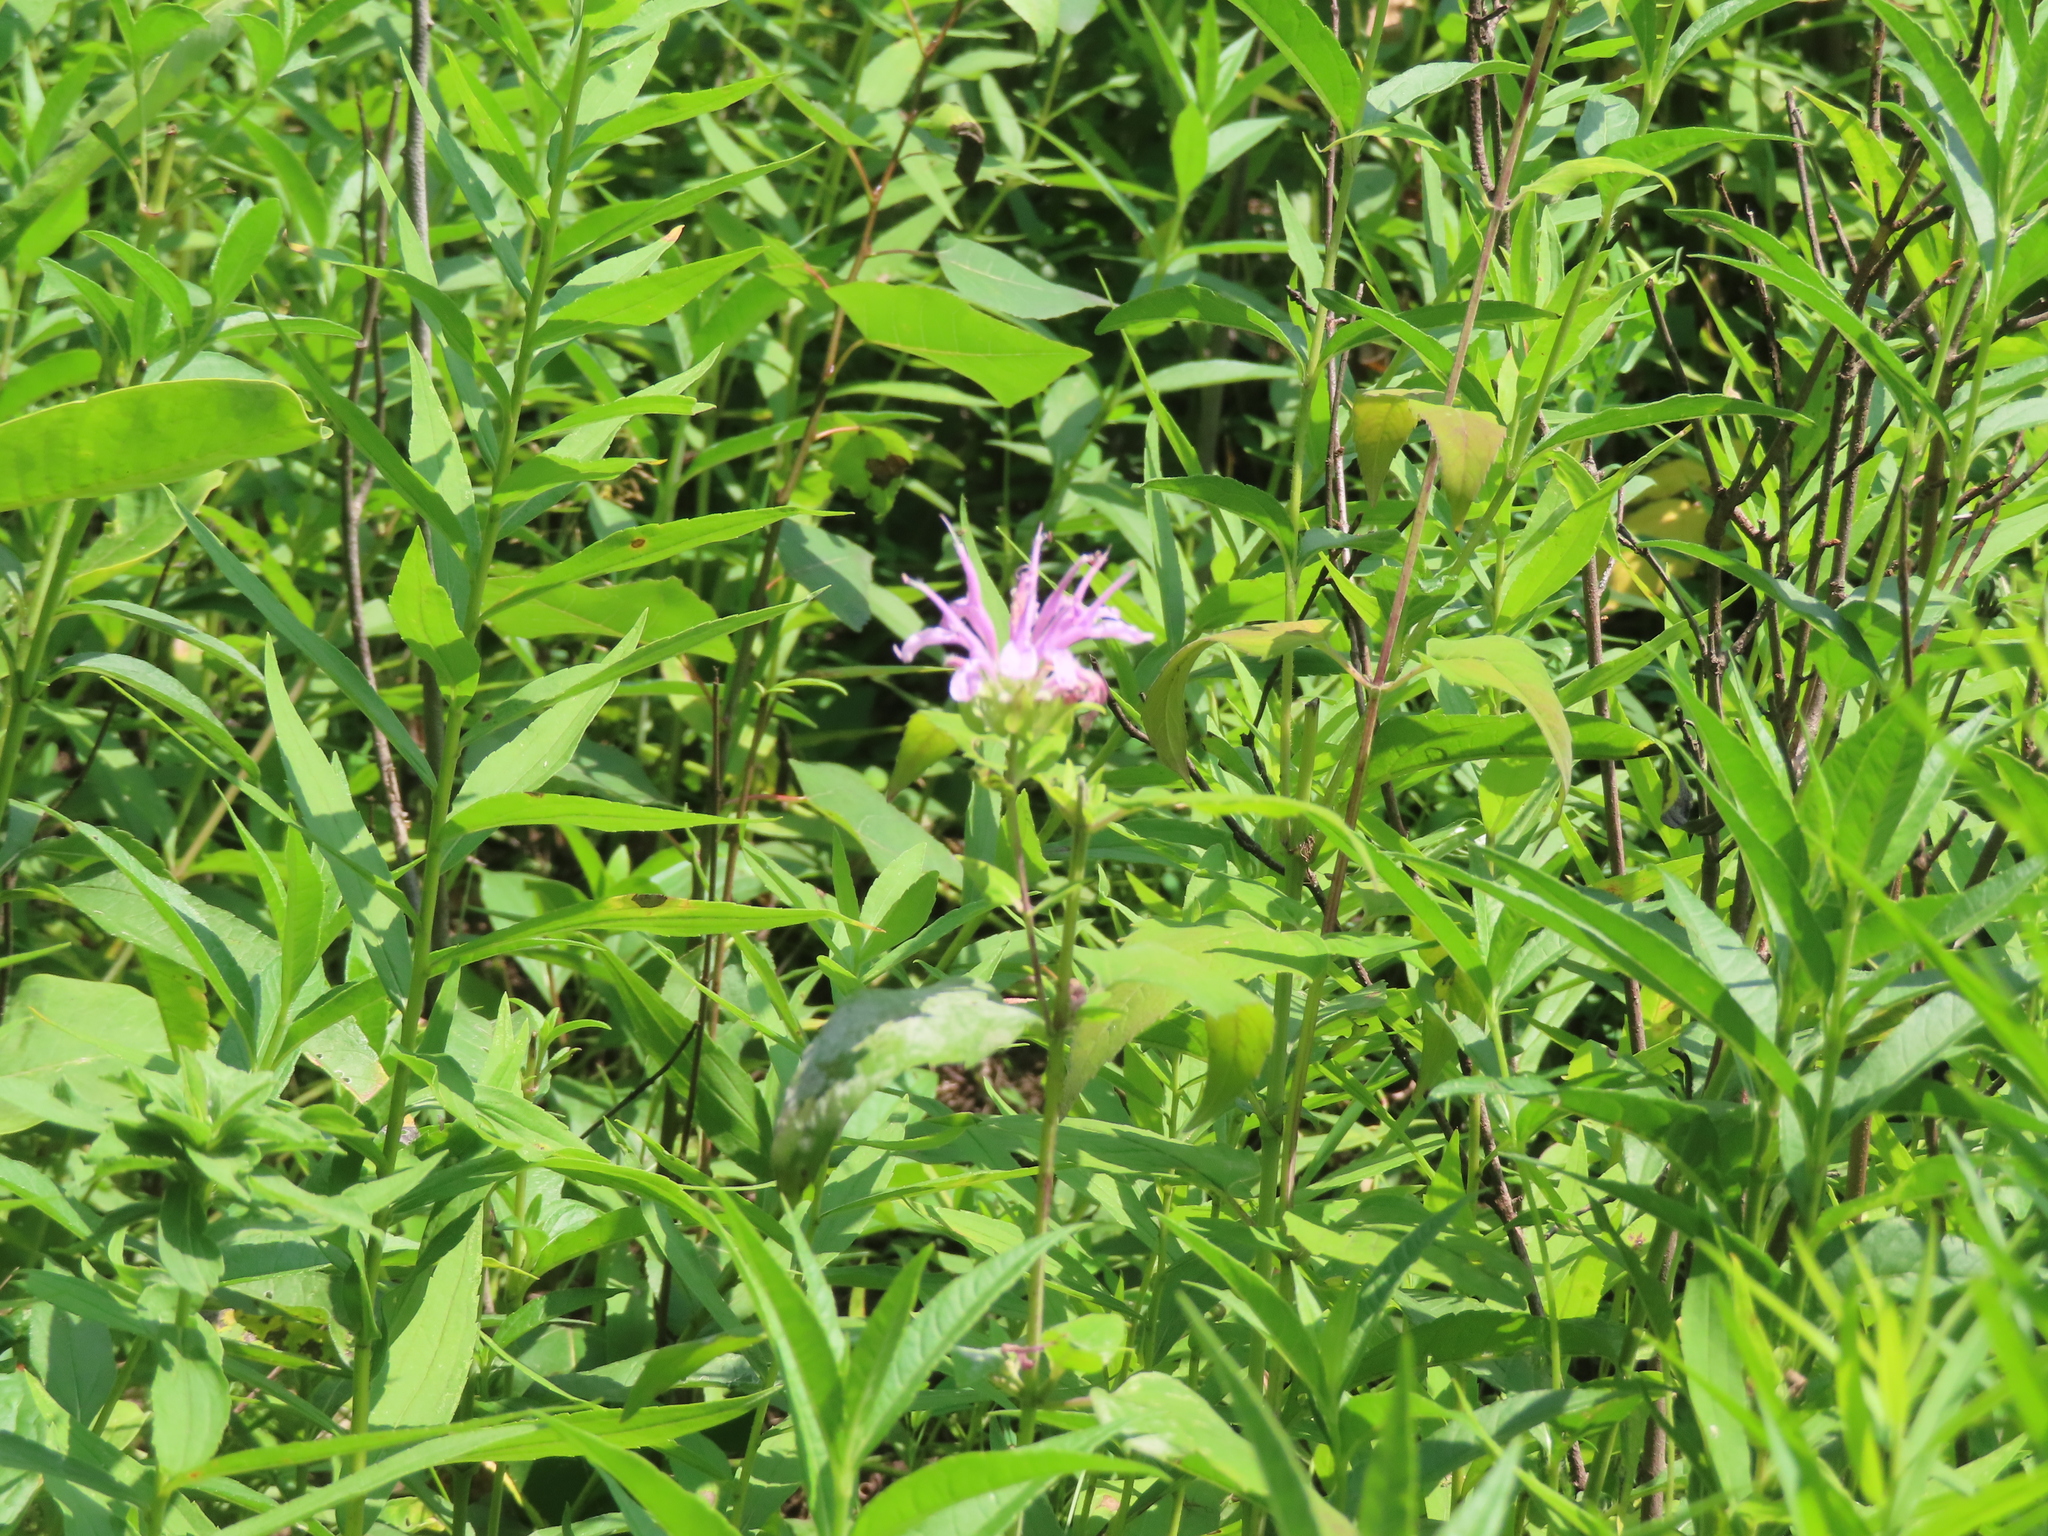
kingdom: Plantae
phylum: Tracheophyta
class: Magnoliopsida
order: Lamiales
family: Lamiaceae
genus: Monarda
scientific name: Monarda fistulosa
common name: Purple beebalm
